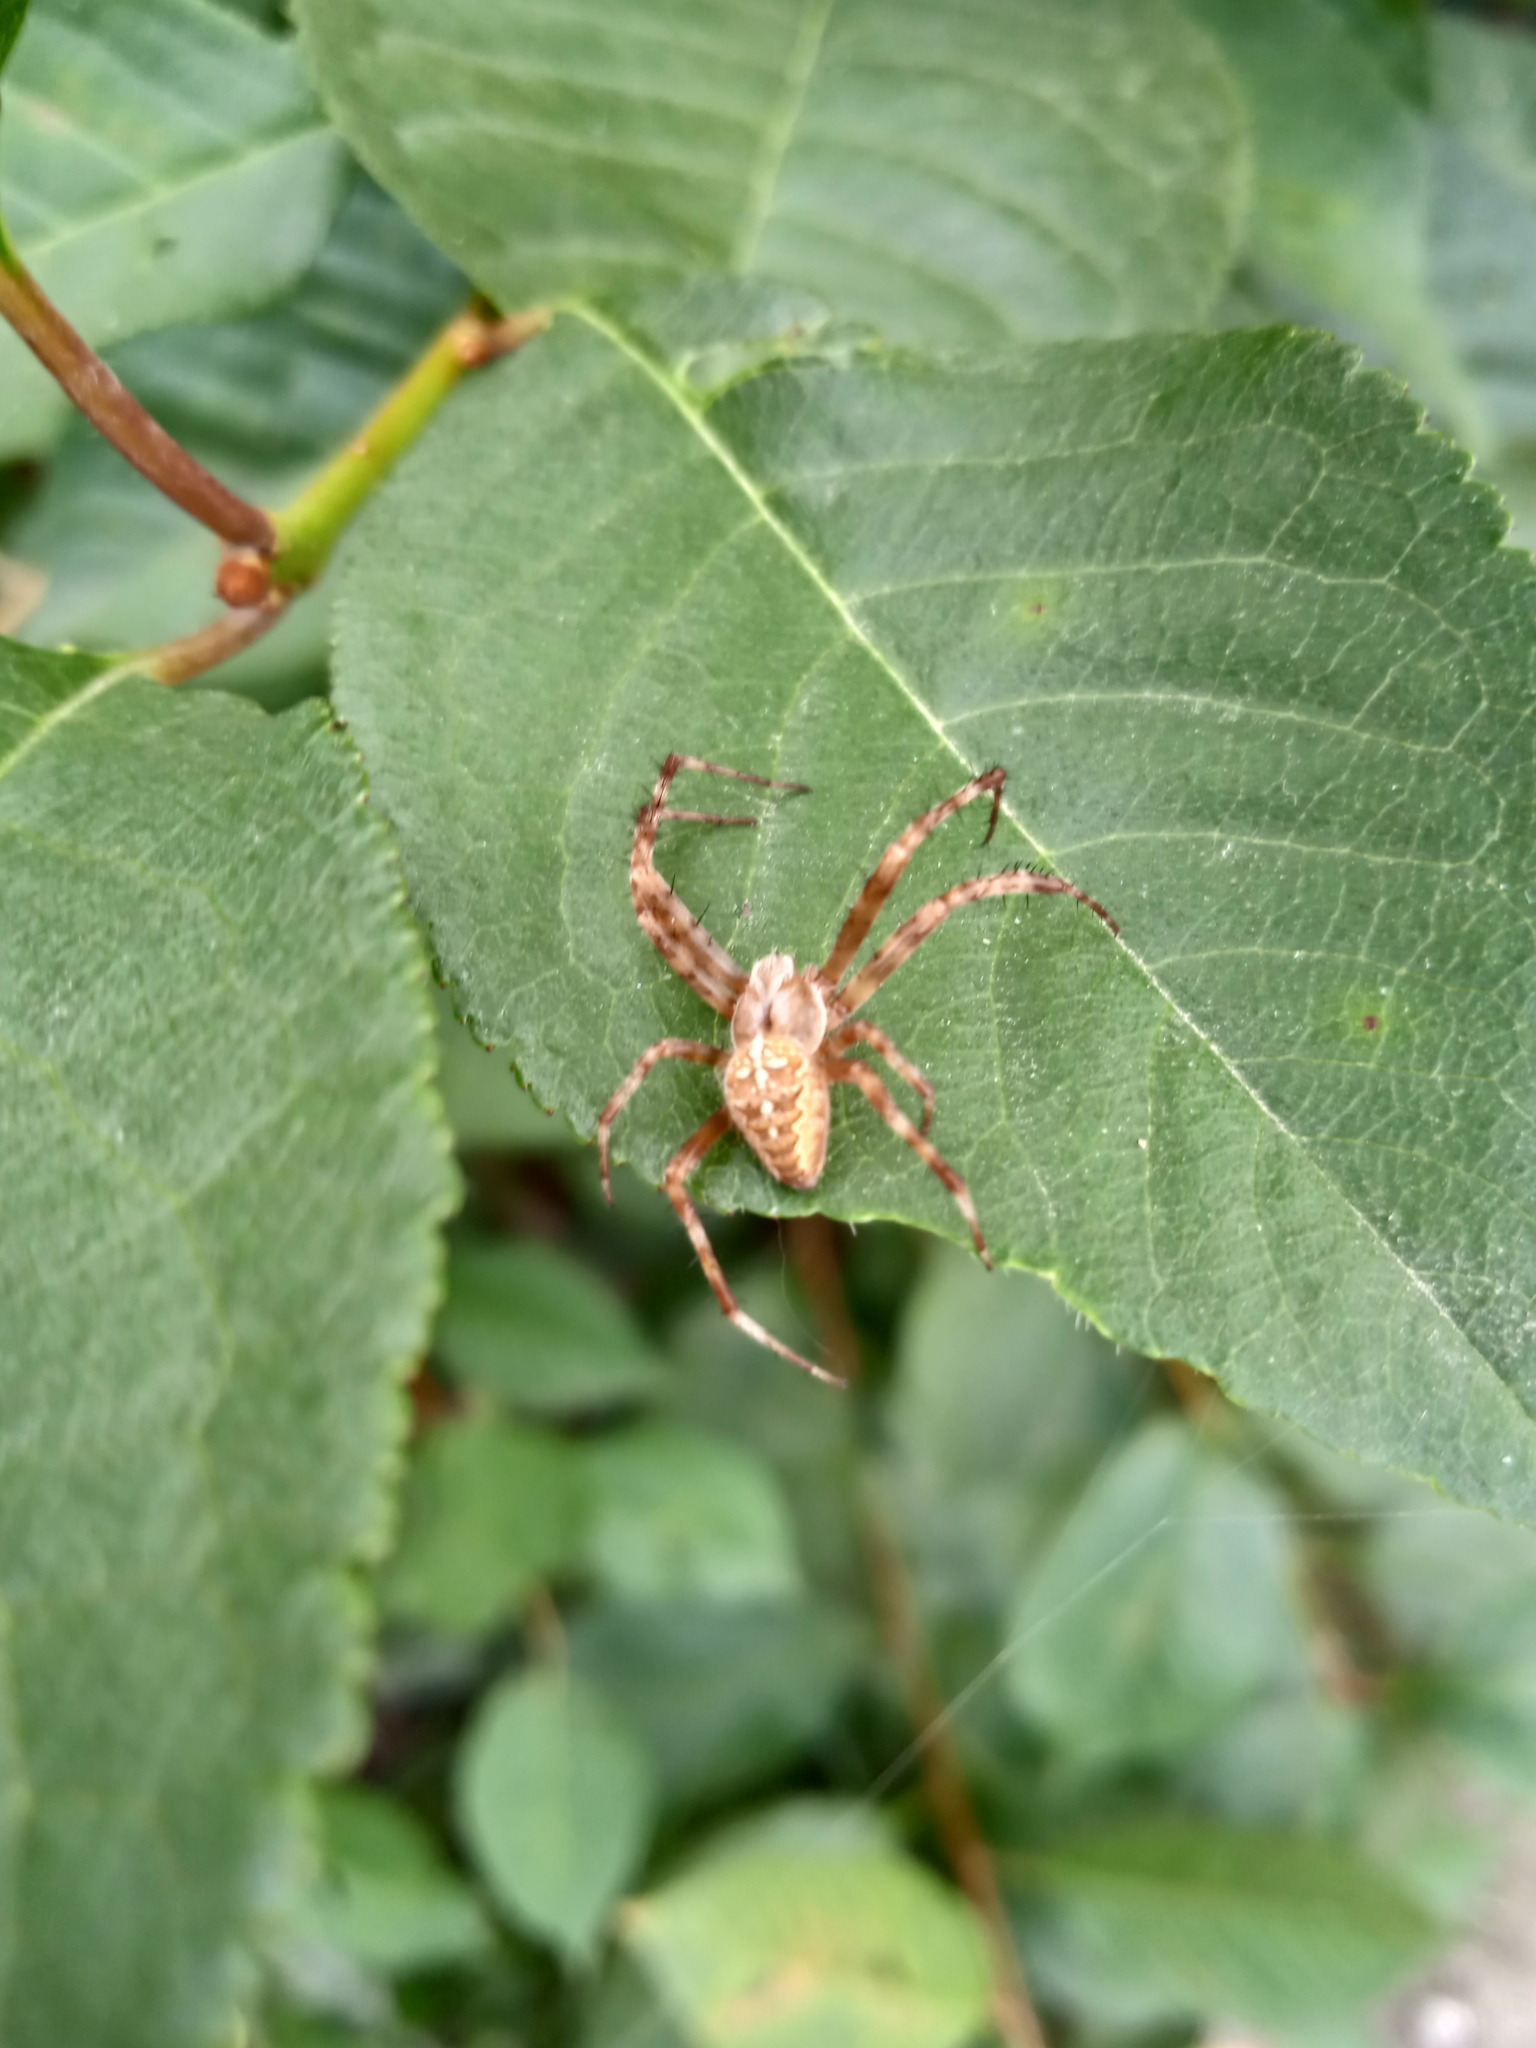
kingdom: Animalia
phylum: Arthropoda
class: Arachnida
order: Araneae
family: Araneidae
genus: Araneus
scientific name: Araneus diadematus
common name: Cross orbweaver
